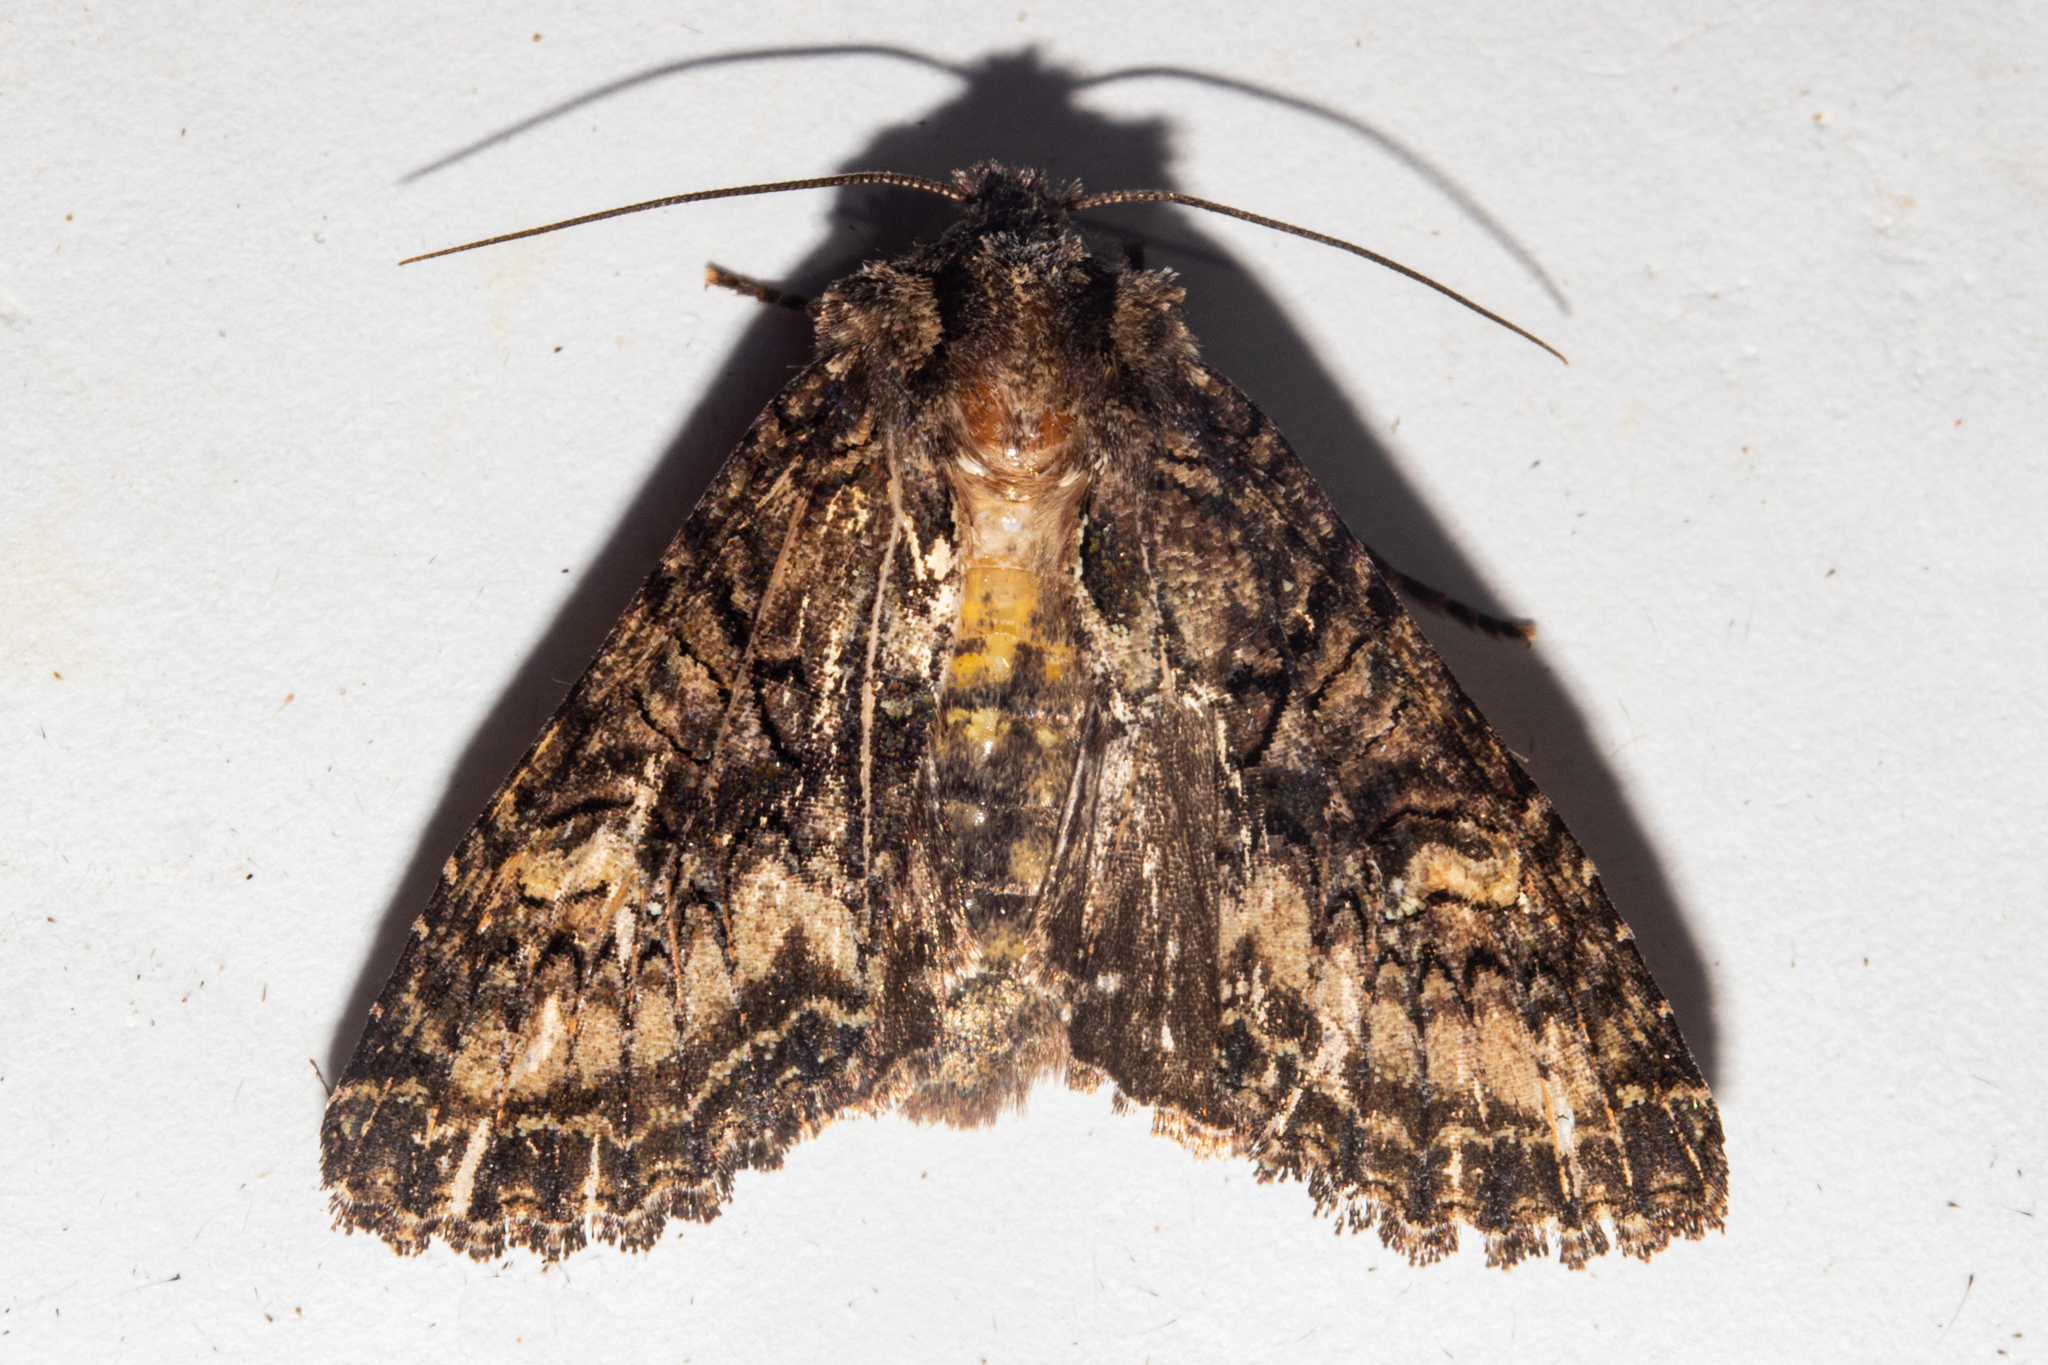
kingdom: Animalia
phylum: Arthropoda
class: Insecta
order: Lepidoptera
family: Noctuidae
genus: Meterana
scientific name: Meterana dotata
